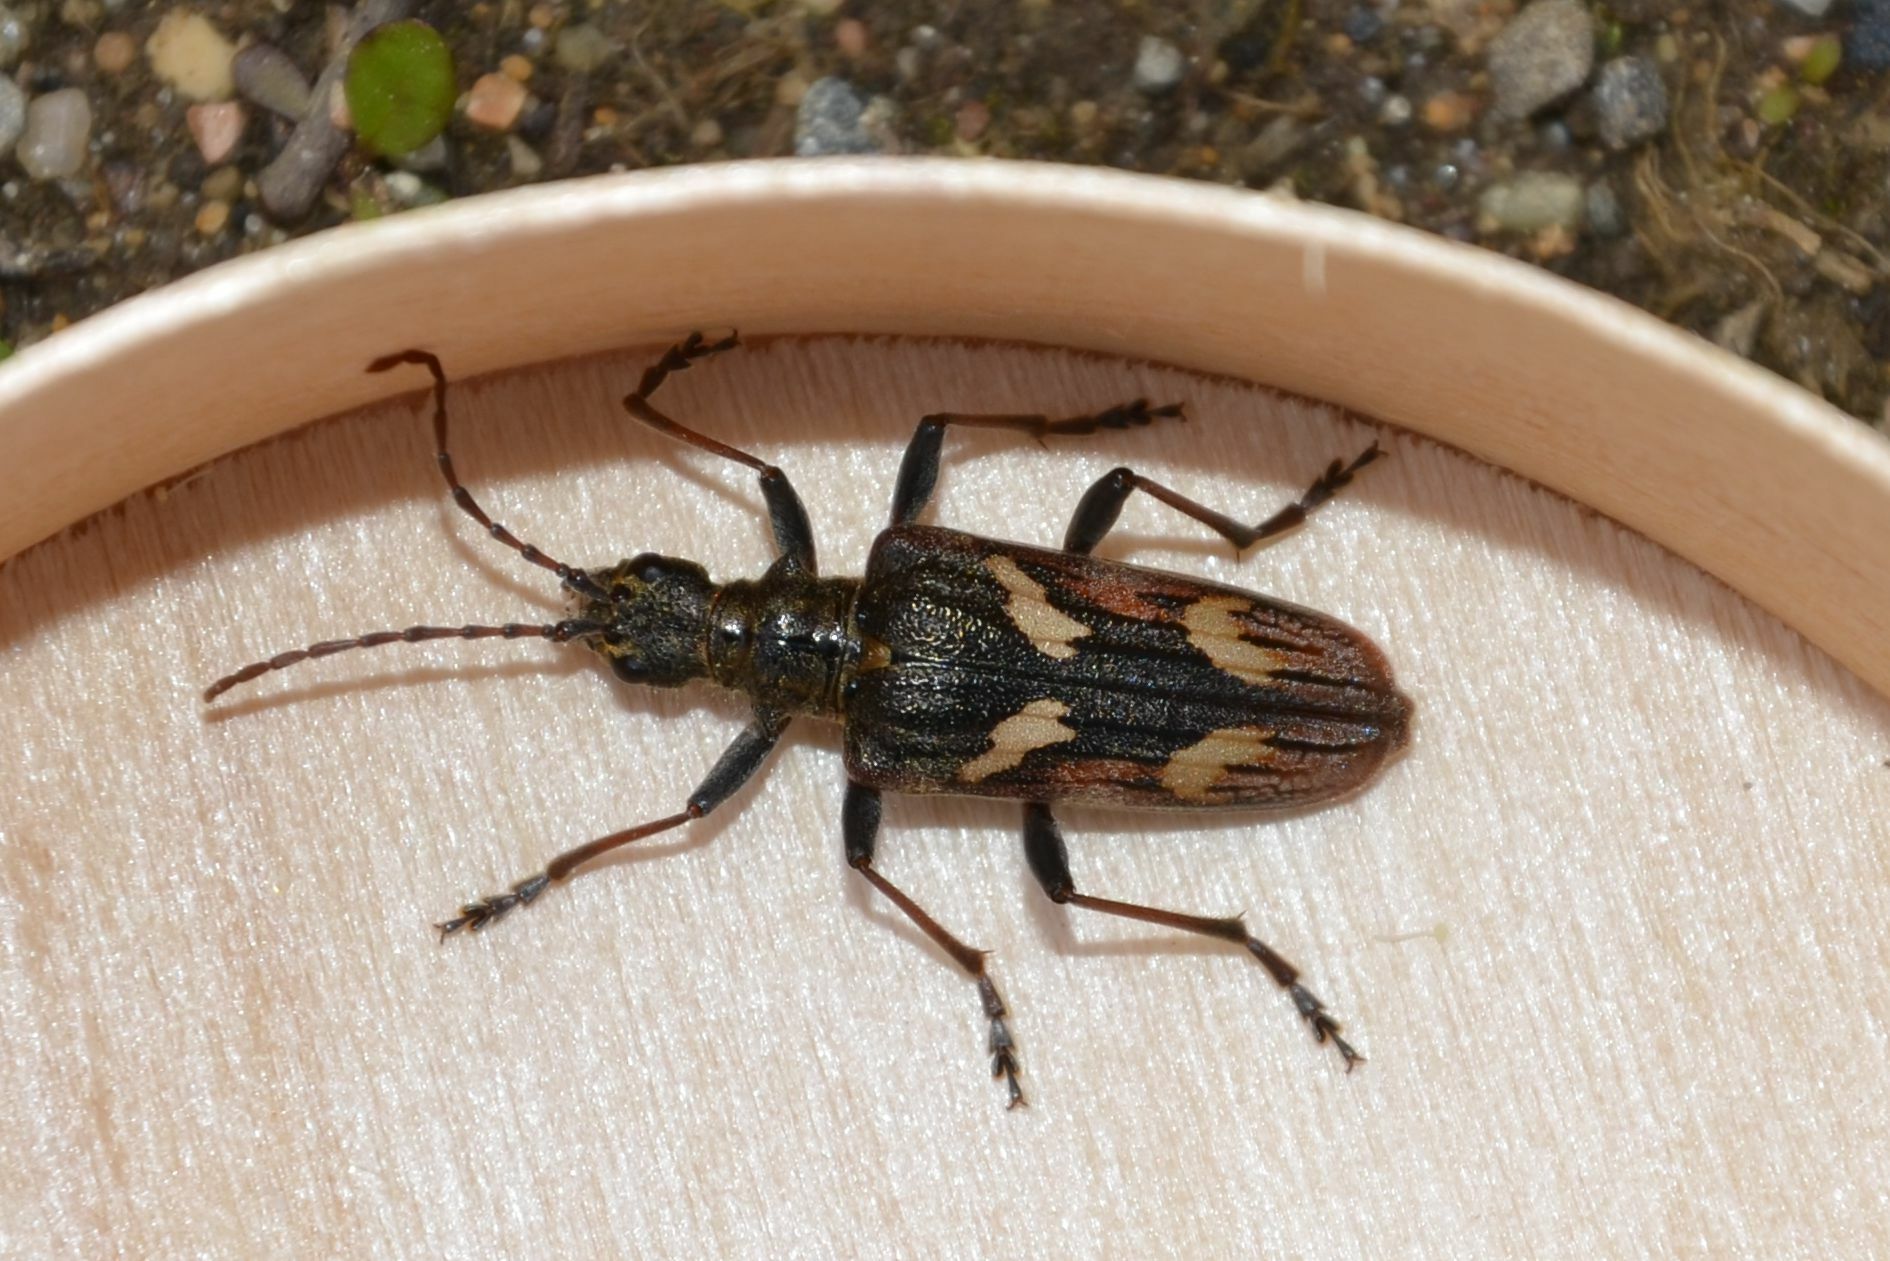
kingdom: Animalia
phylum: Arthropoda
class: Insecta
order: Coleoptera
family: Cerambycidae
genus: Rhagium
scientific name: Rhagium bifasciatum
